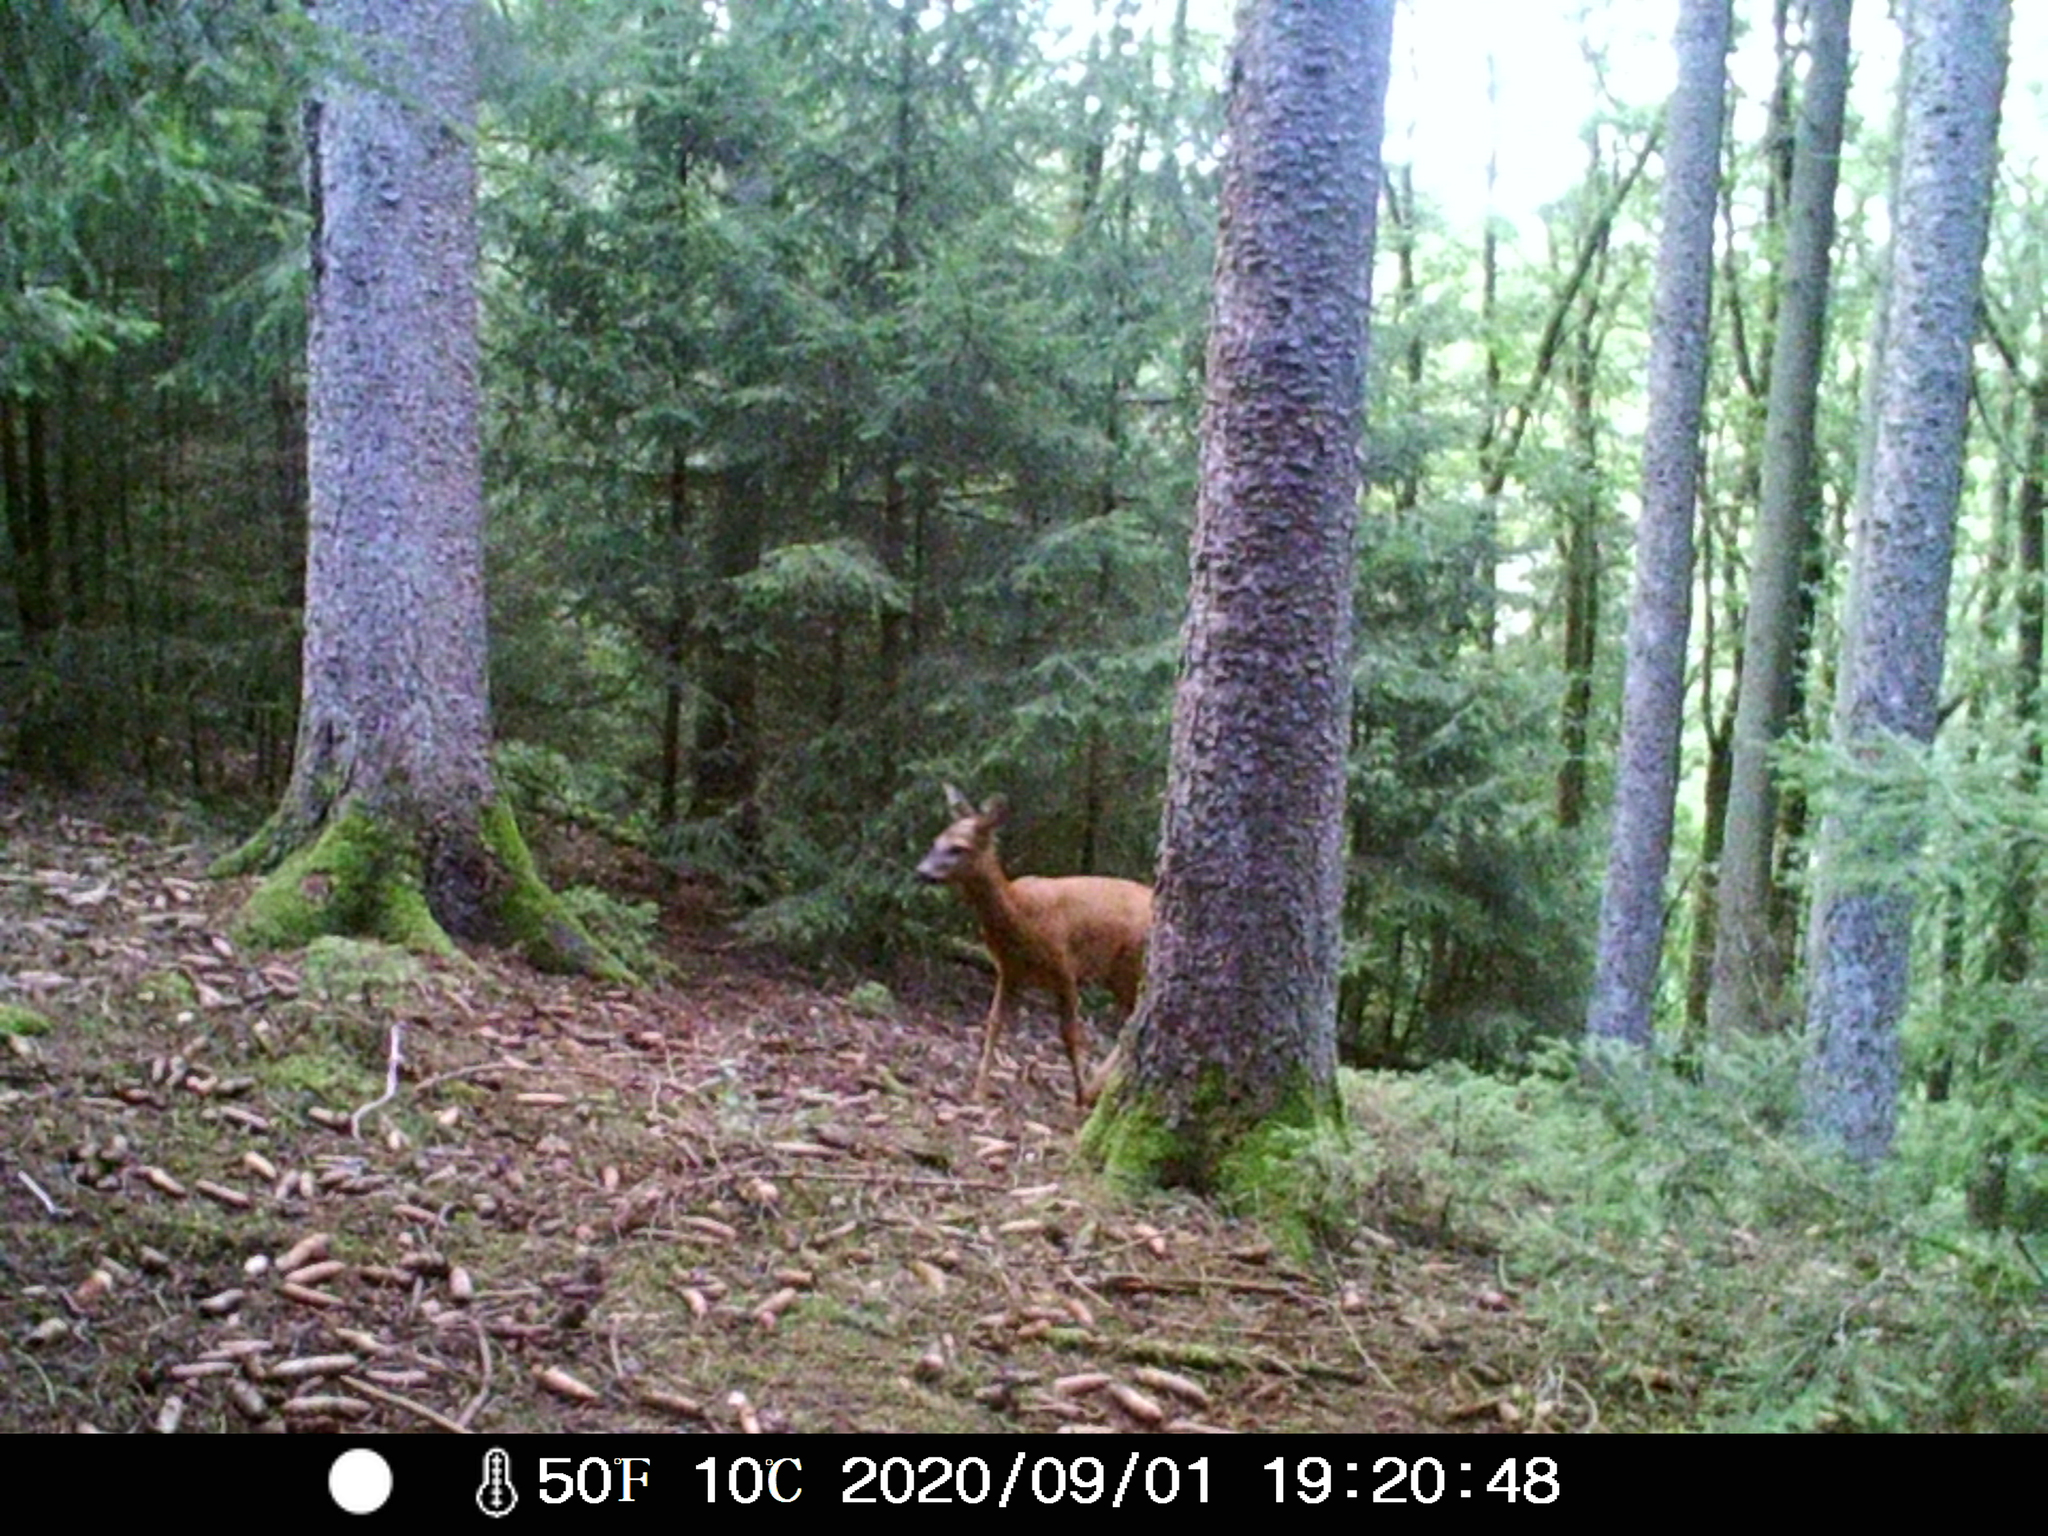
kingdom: Animalia
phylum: Chordata
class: Mammalia
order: Artiodactyla
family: Cervidae
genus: Capreolus
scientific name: Capreolus capreolus
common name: Western roe deer
